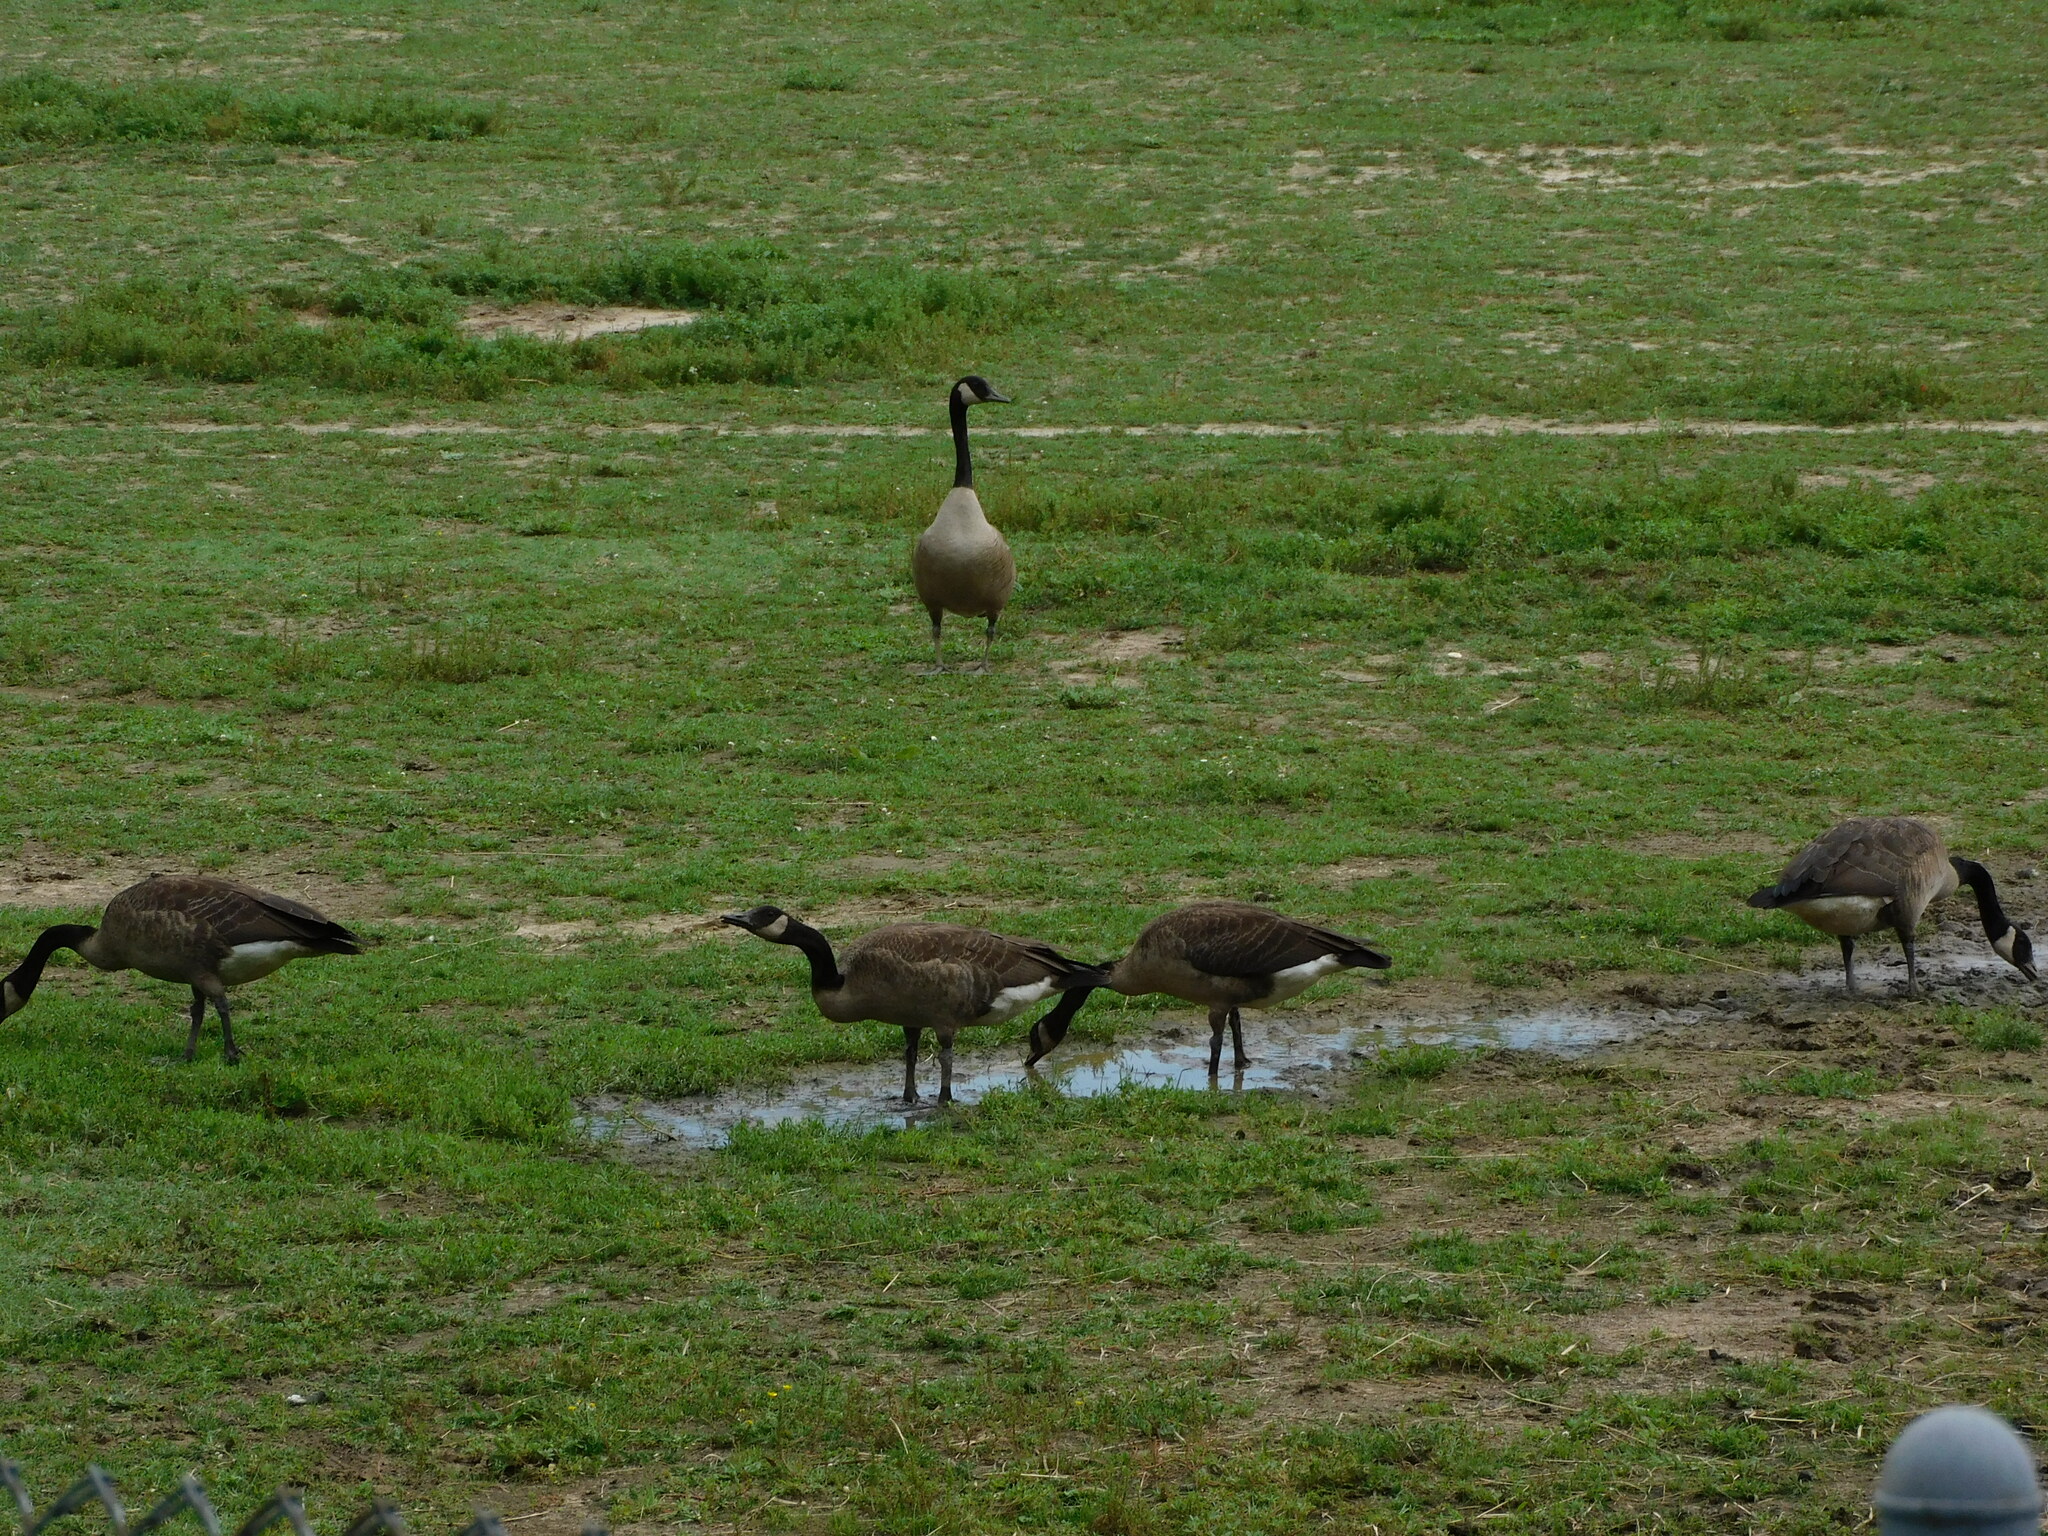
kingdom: Animalia
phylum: Chordata
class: Aves
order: Anseriformes
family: Anatidae
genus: Branta
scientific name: Branta canadensis
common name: Canada goose
